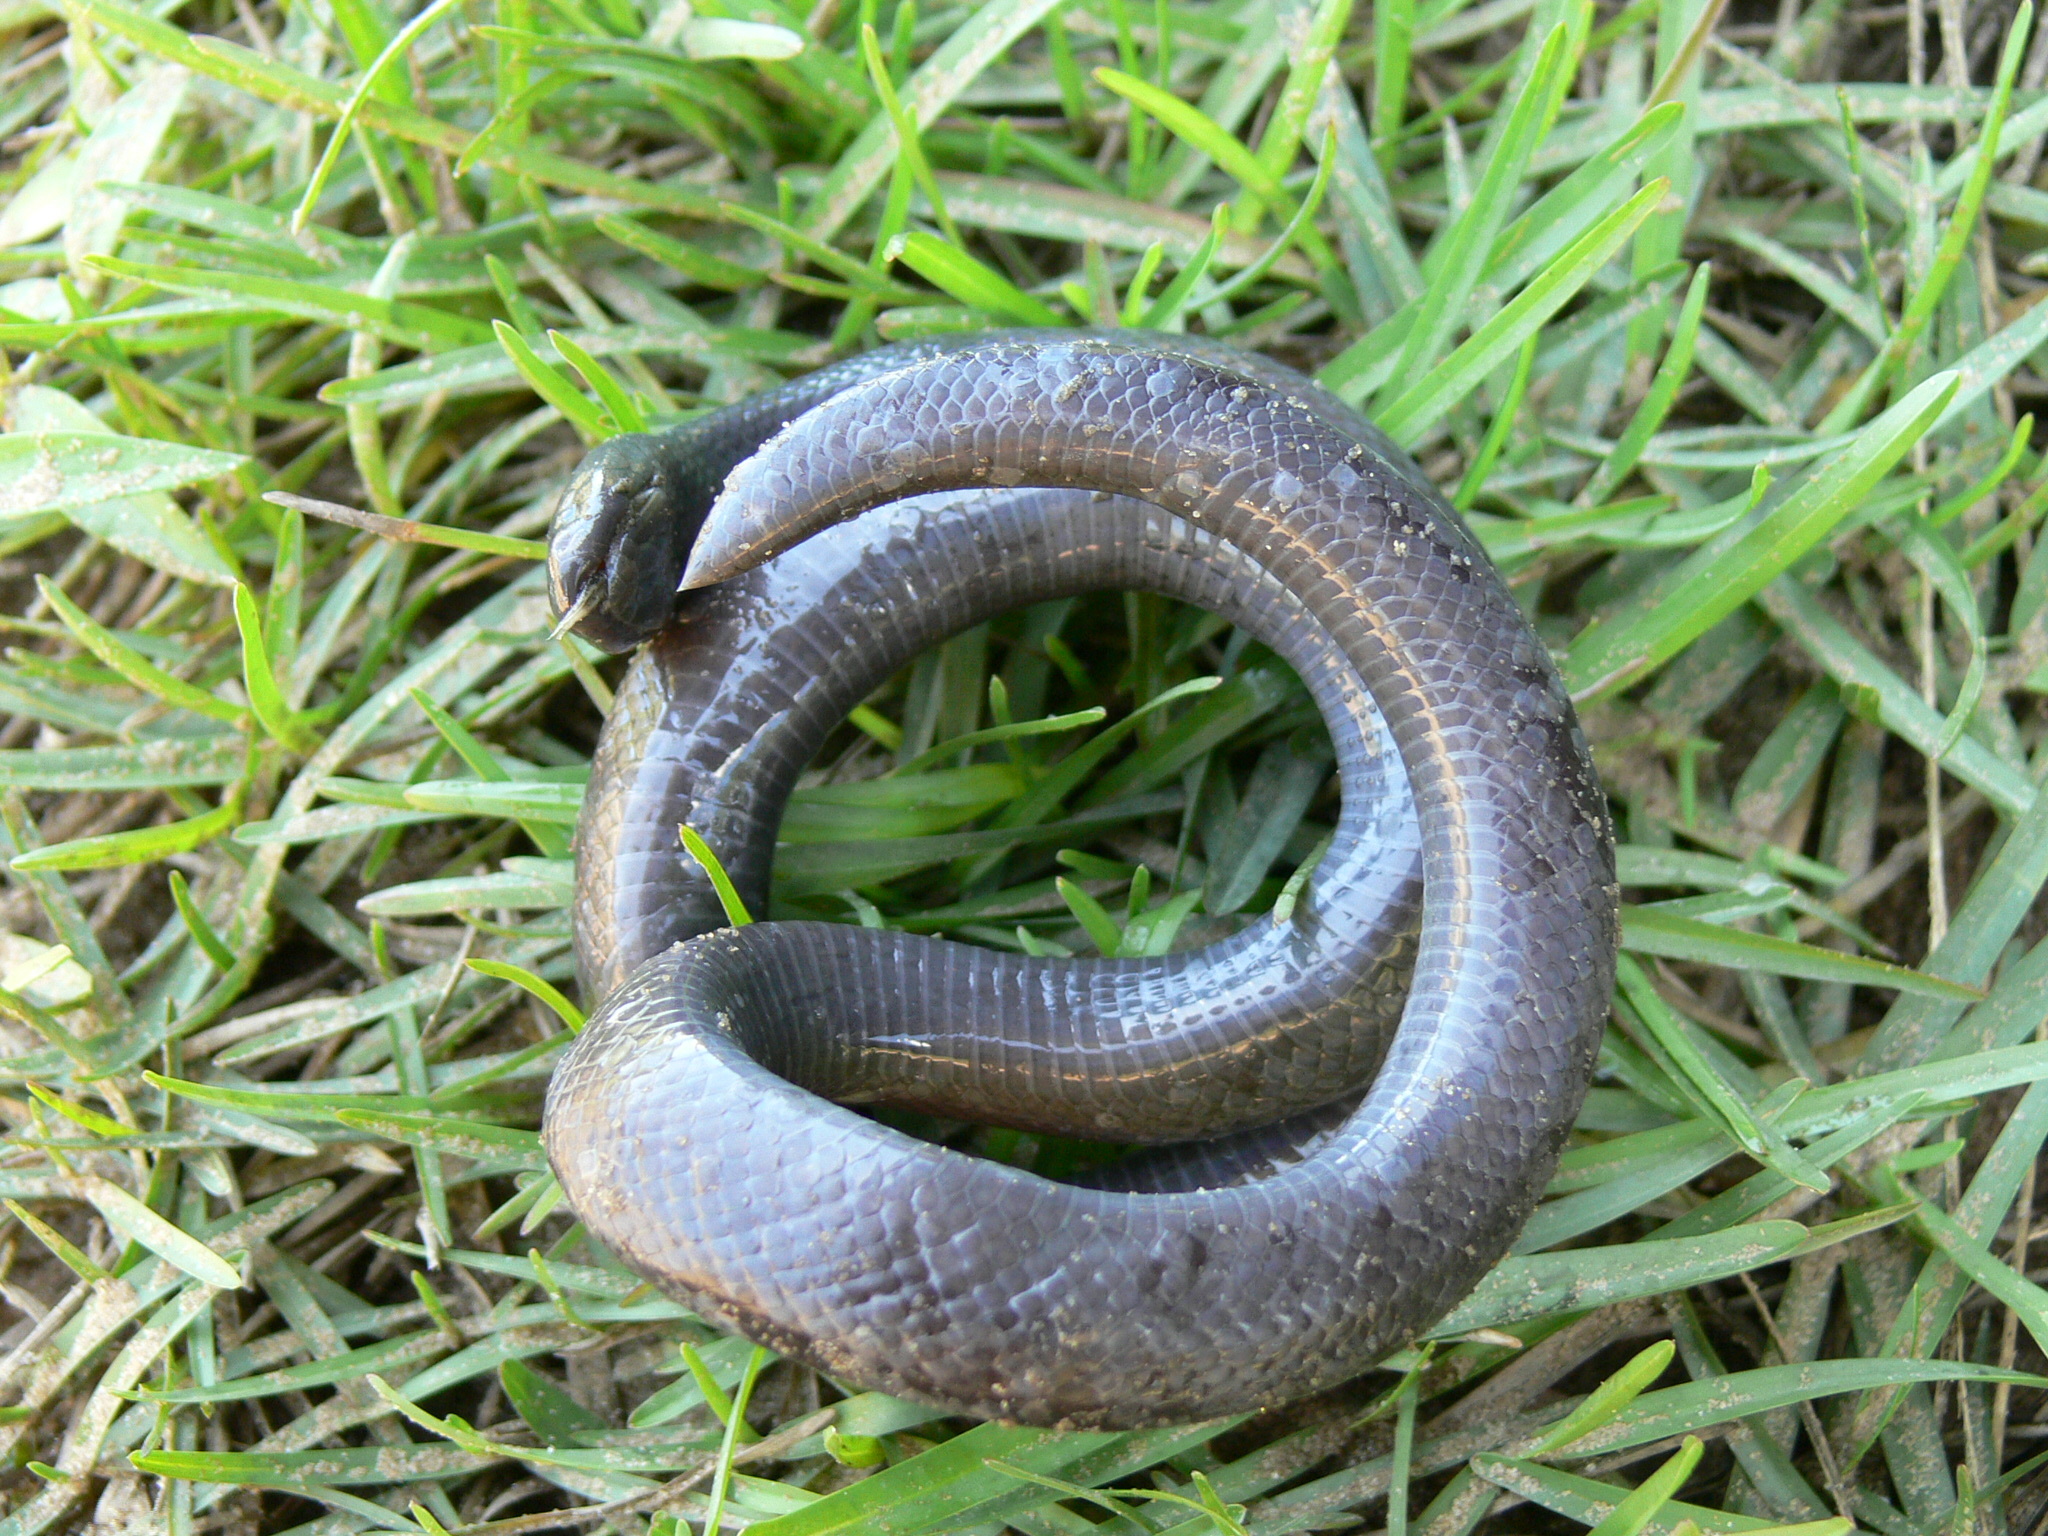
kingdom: Animalia
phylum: Chordata
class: Squamata
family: Atractaspididae
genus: Atractaspis
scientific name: Atractaspis boulengeri
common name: Mole viper
